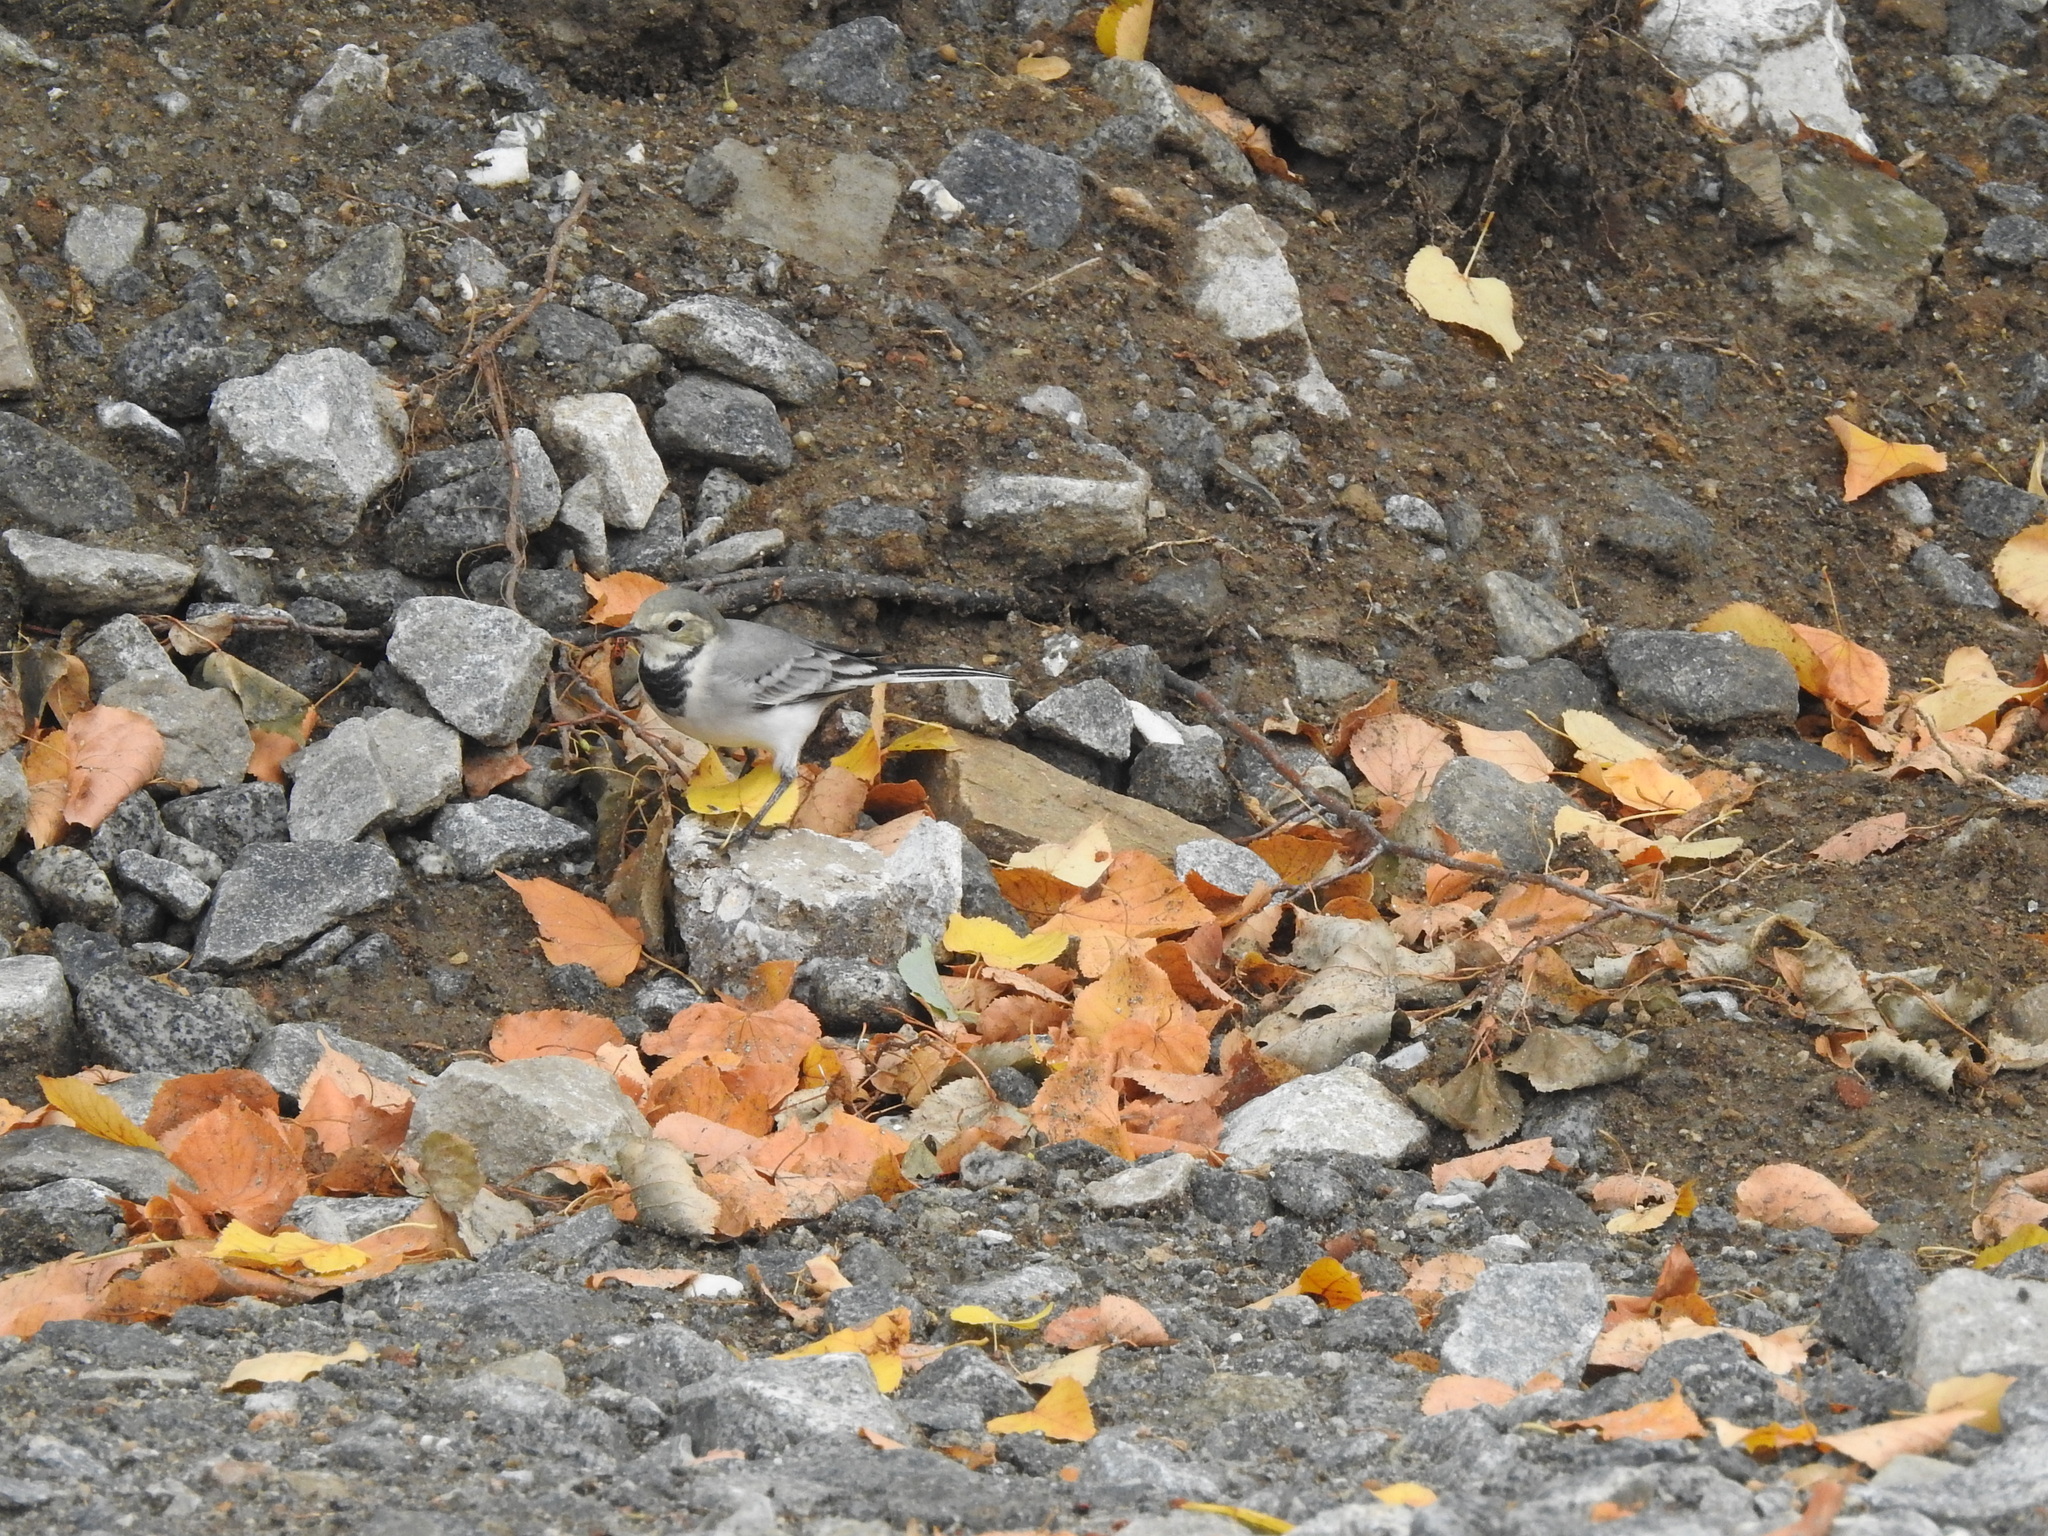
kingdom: Animalia
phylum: Chordata
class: Aves
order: Passeriformes
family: Motacillidae
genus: Motacilla
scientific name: Motacilla alba
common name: White wagtail
